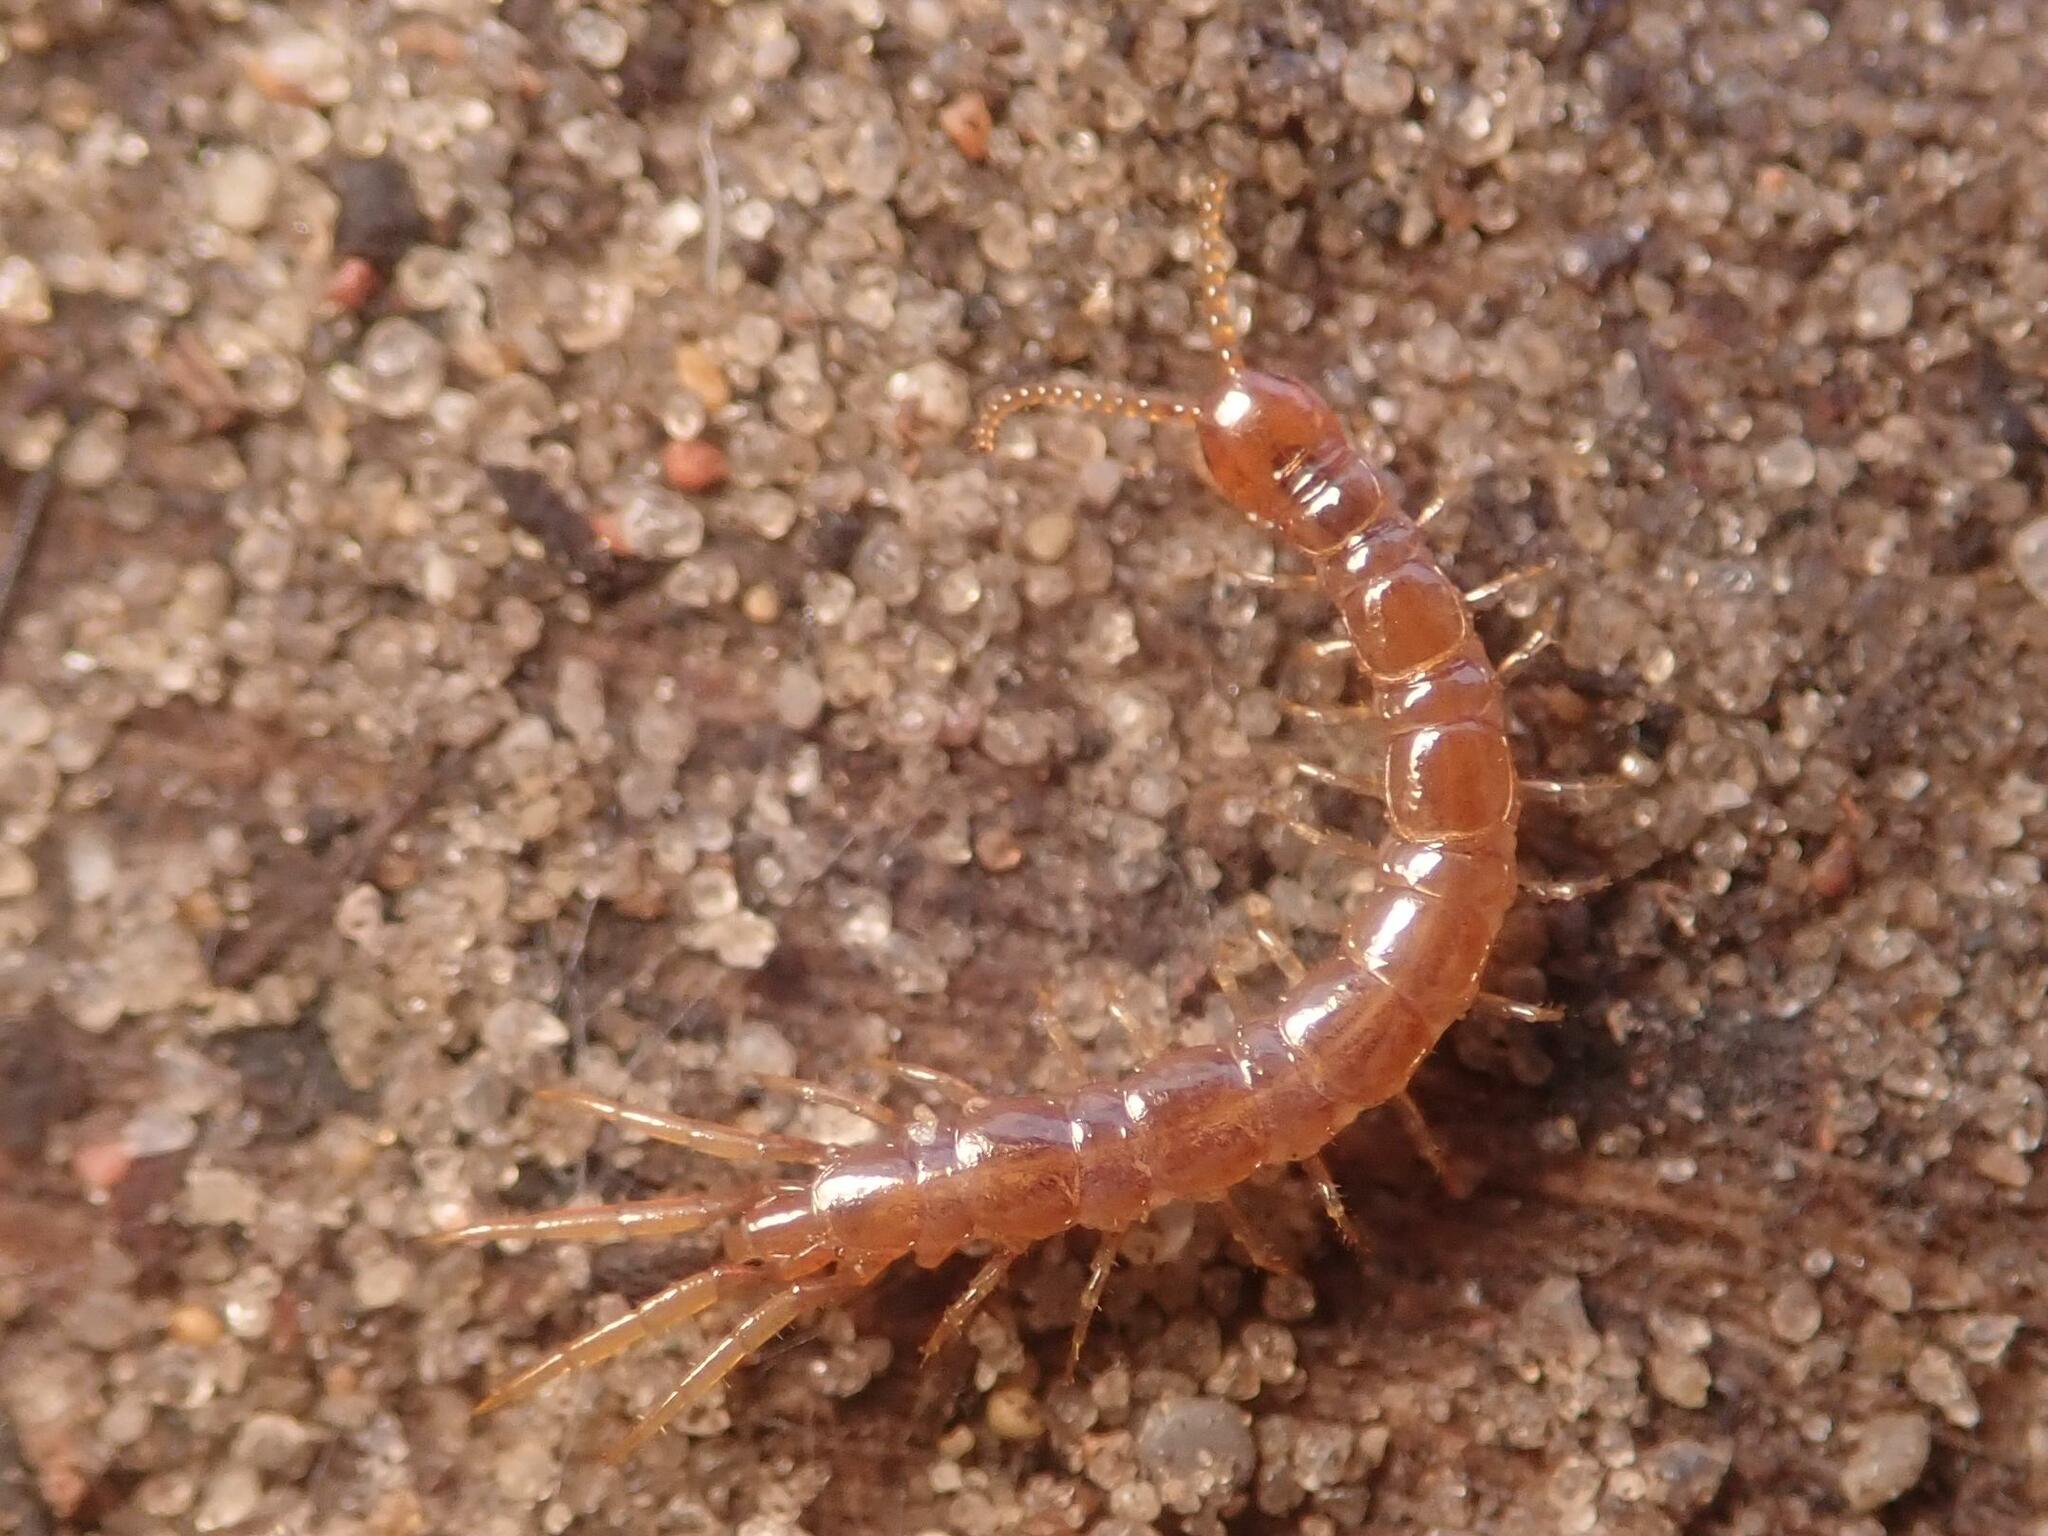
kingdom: Animalia
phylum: Arthropoda
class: Chilopoda
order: Lithobiomorpha
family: Lithobiidae
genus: Lithobius
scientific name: Lithobius forficatus
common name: Centipede
